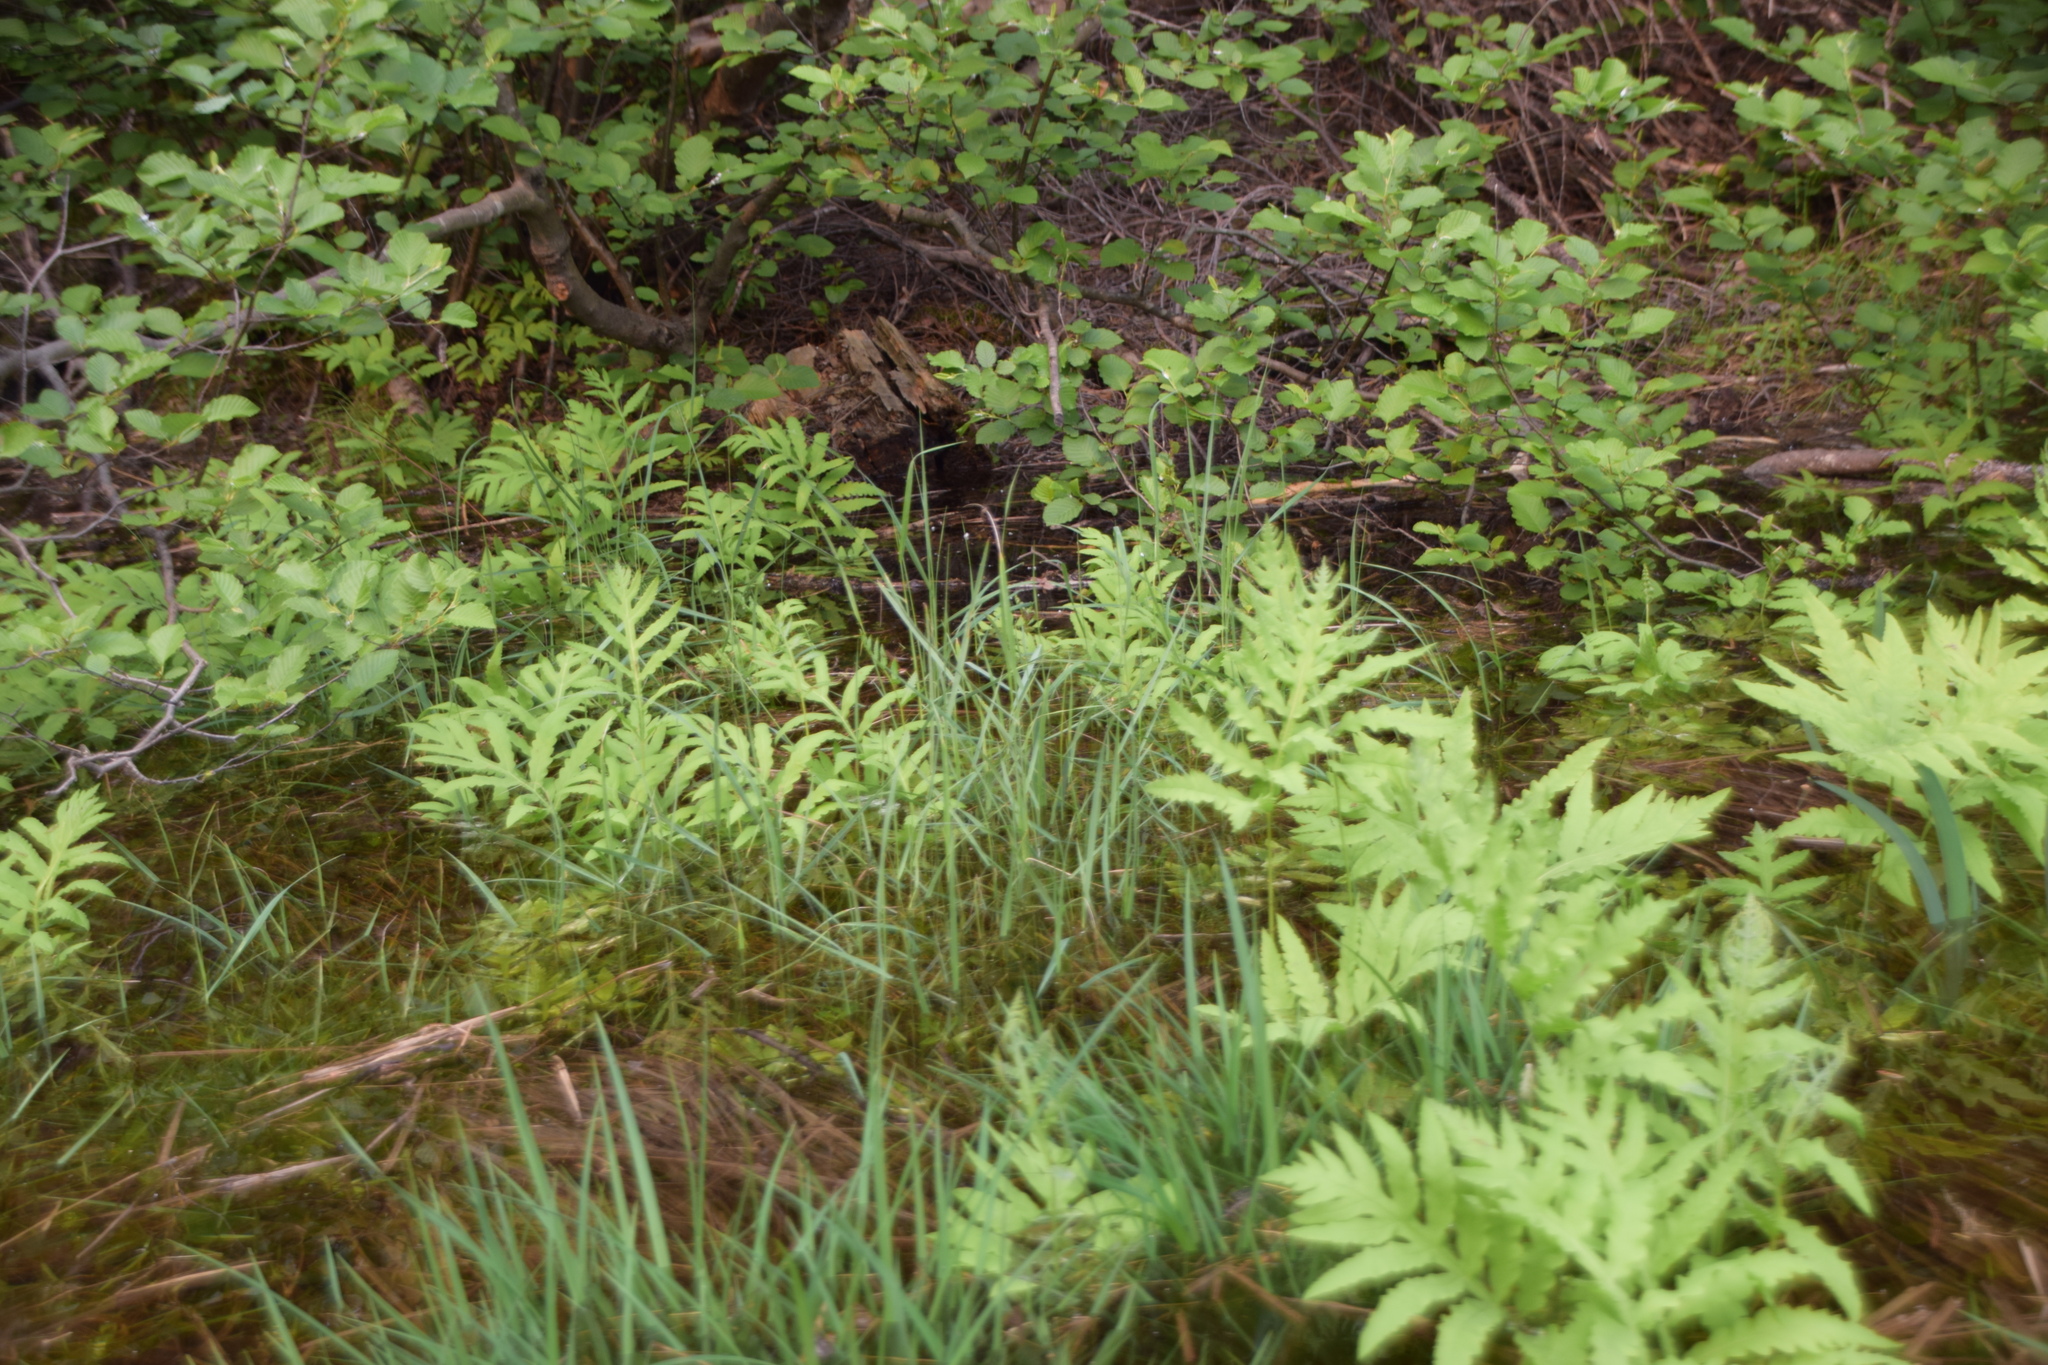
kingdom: Plantae
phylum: Tracheophyta
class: Polypodiopsida
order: Polypodiales
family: Onocleaceae
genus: Onoclea
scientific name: Onoclea sensibilis
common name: Sensitive fern
